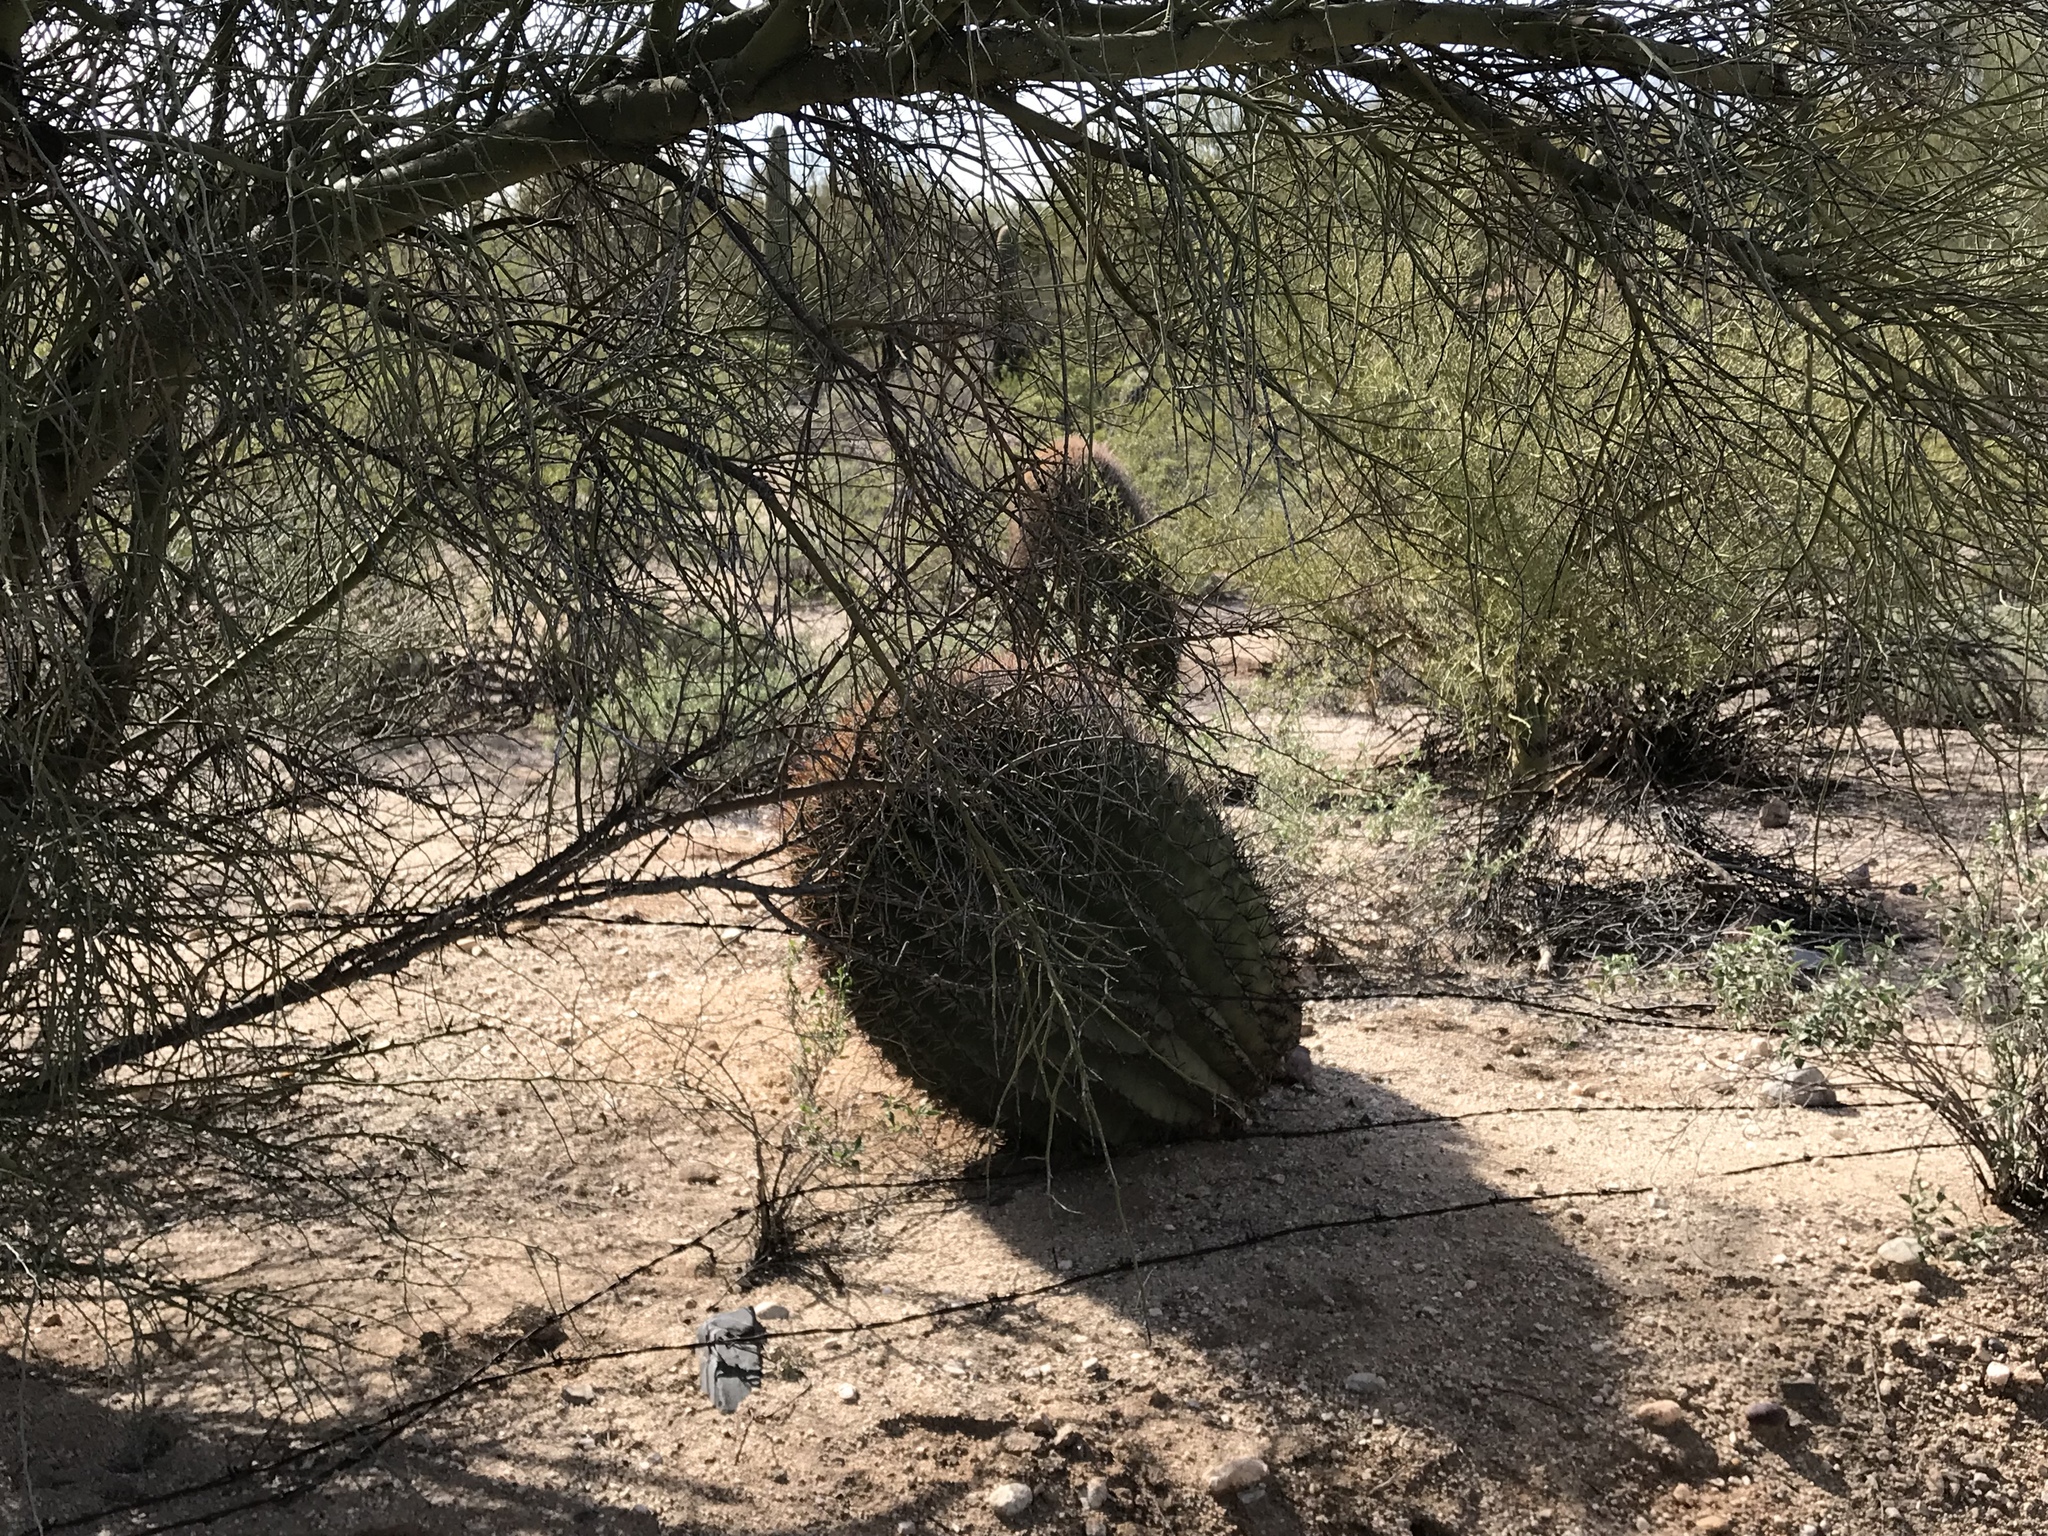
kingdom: Plantae
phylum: Tracheophyta
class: Magnoliopsida
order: Caryophyllales
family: Cactaceae
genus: Ferocactus
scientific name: Ferocactus wislizeni
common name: Candy barrel cactus
